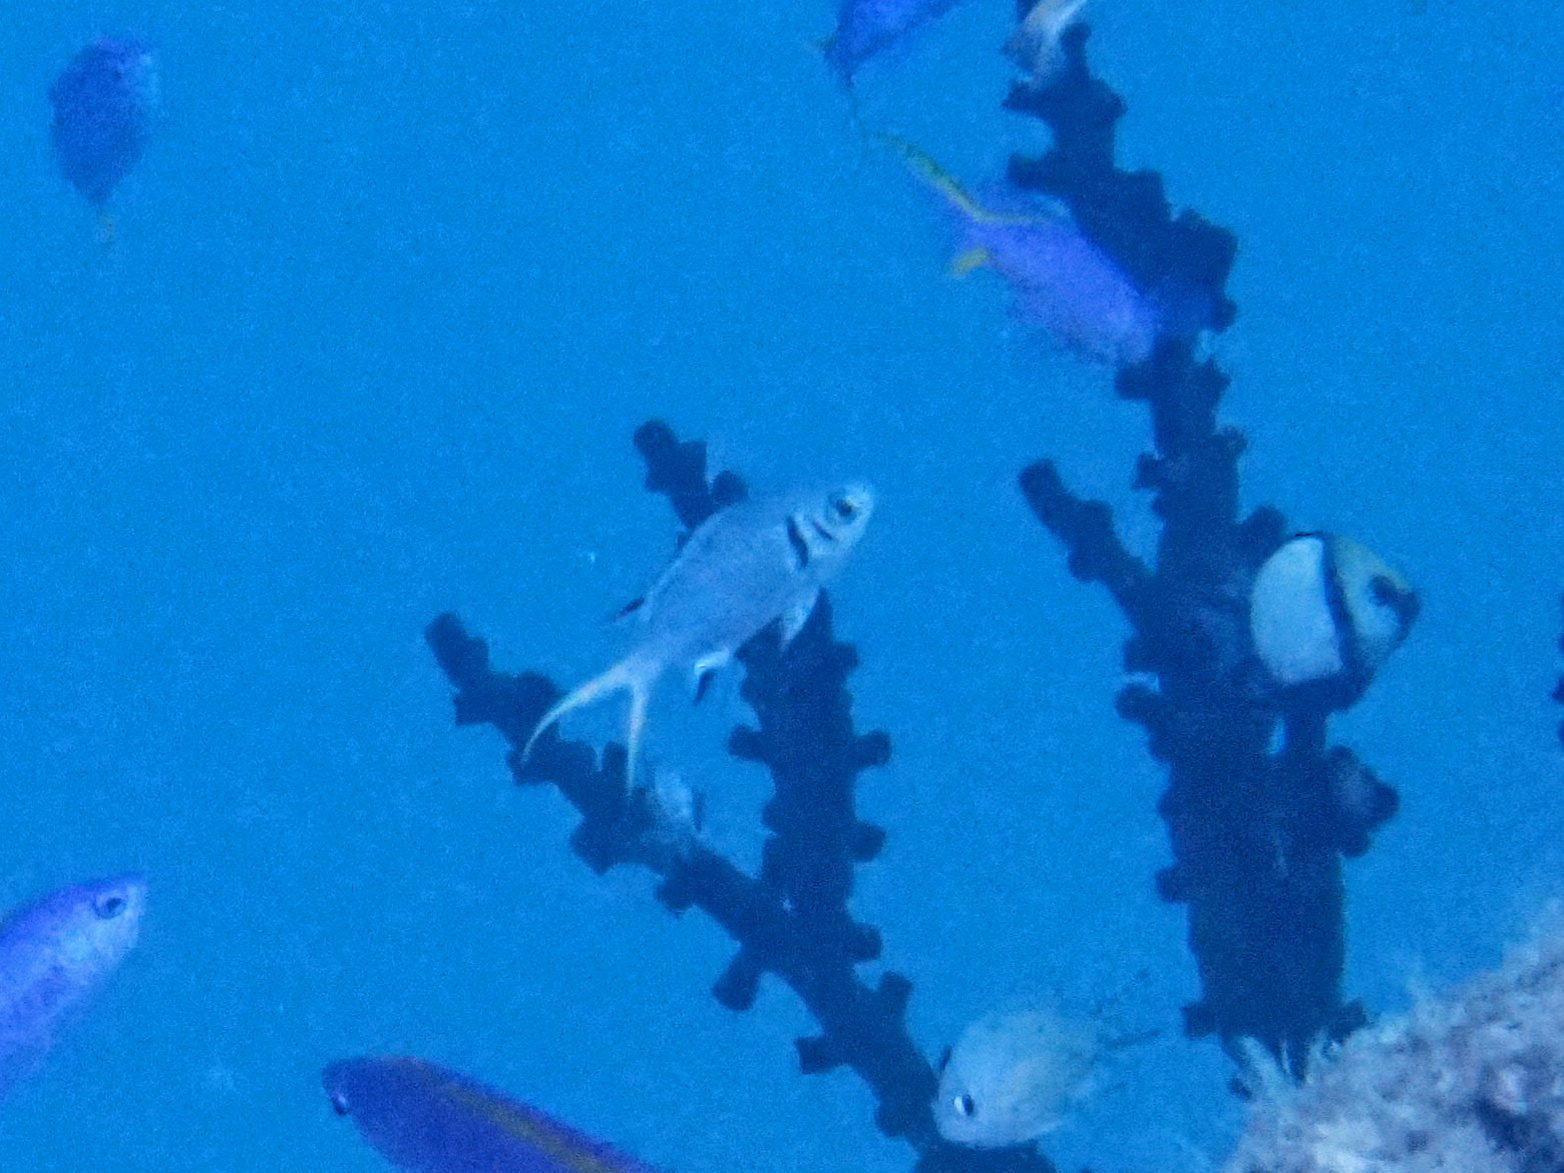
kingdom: Animalia
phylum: Chordata
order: Perciformes
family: Pomacentridae
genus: Chromis
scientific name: Chromis xanthura
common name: Black chromis
